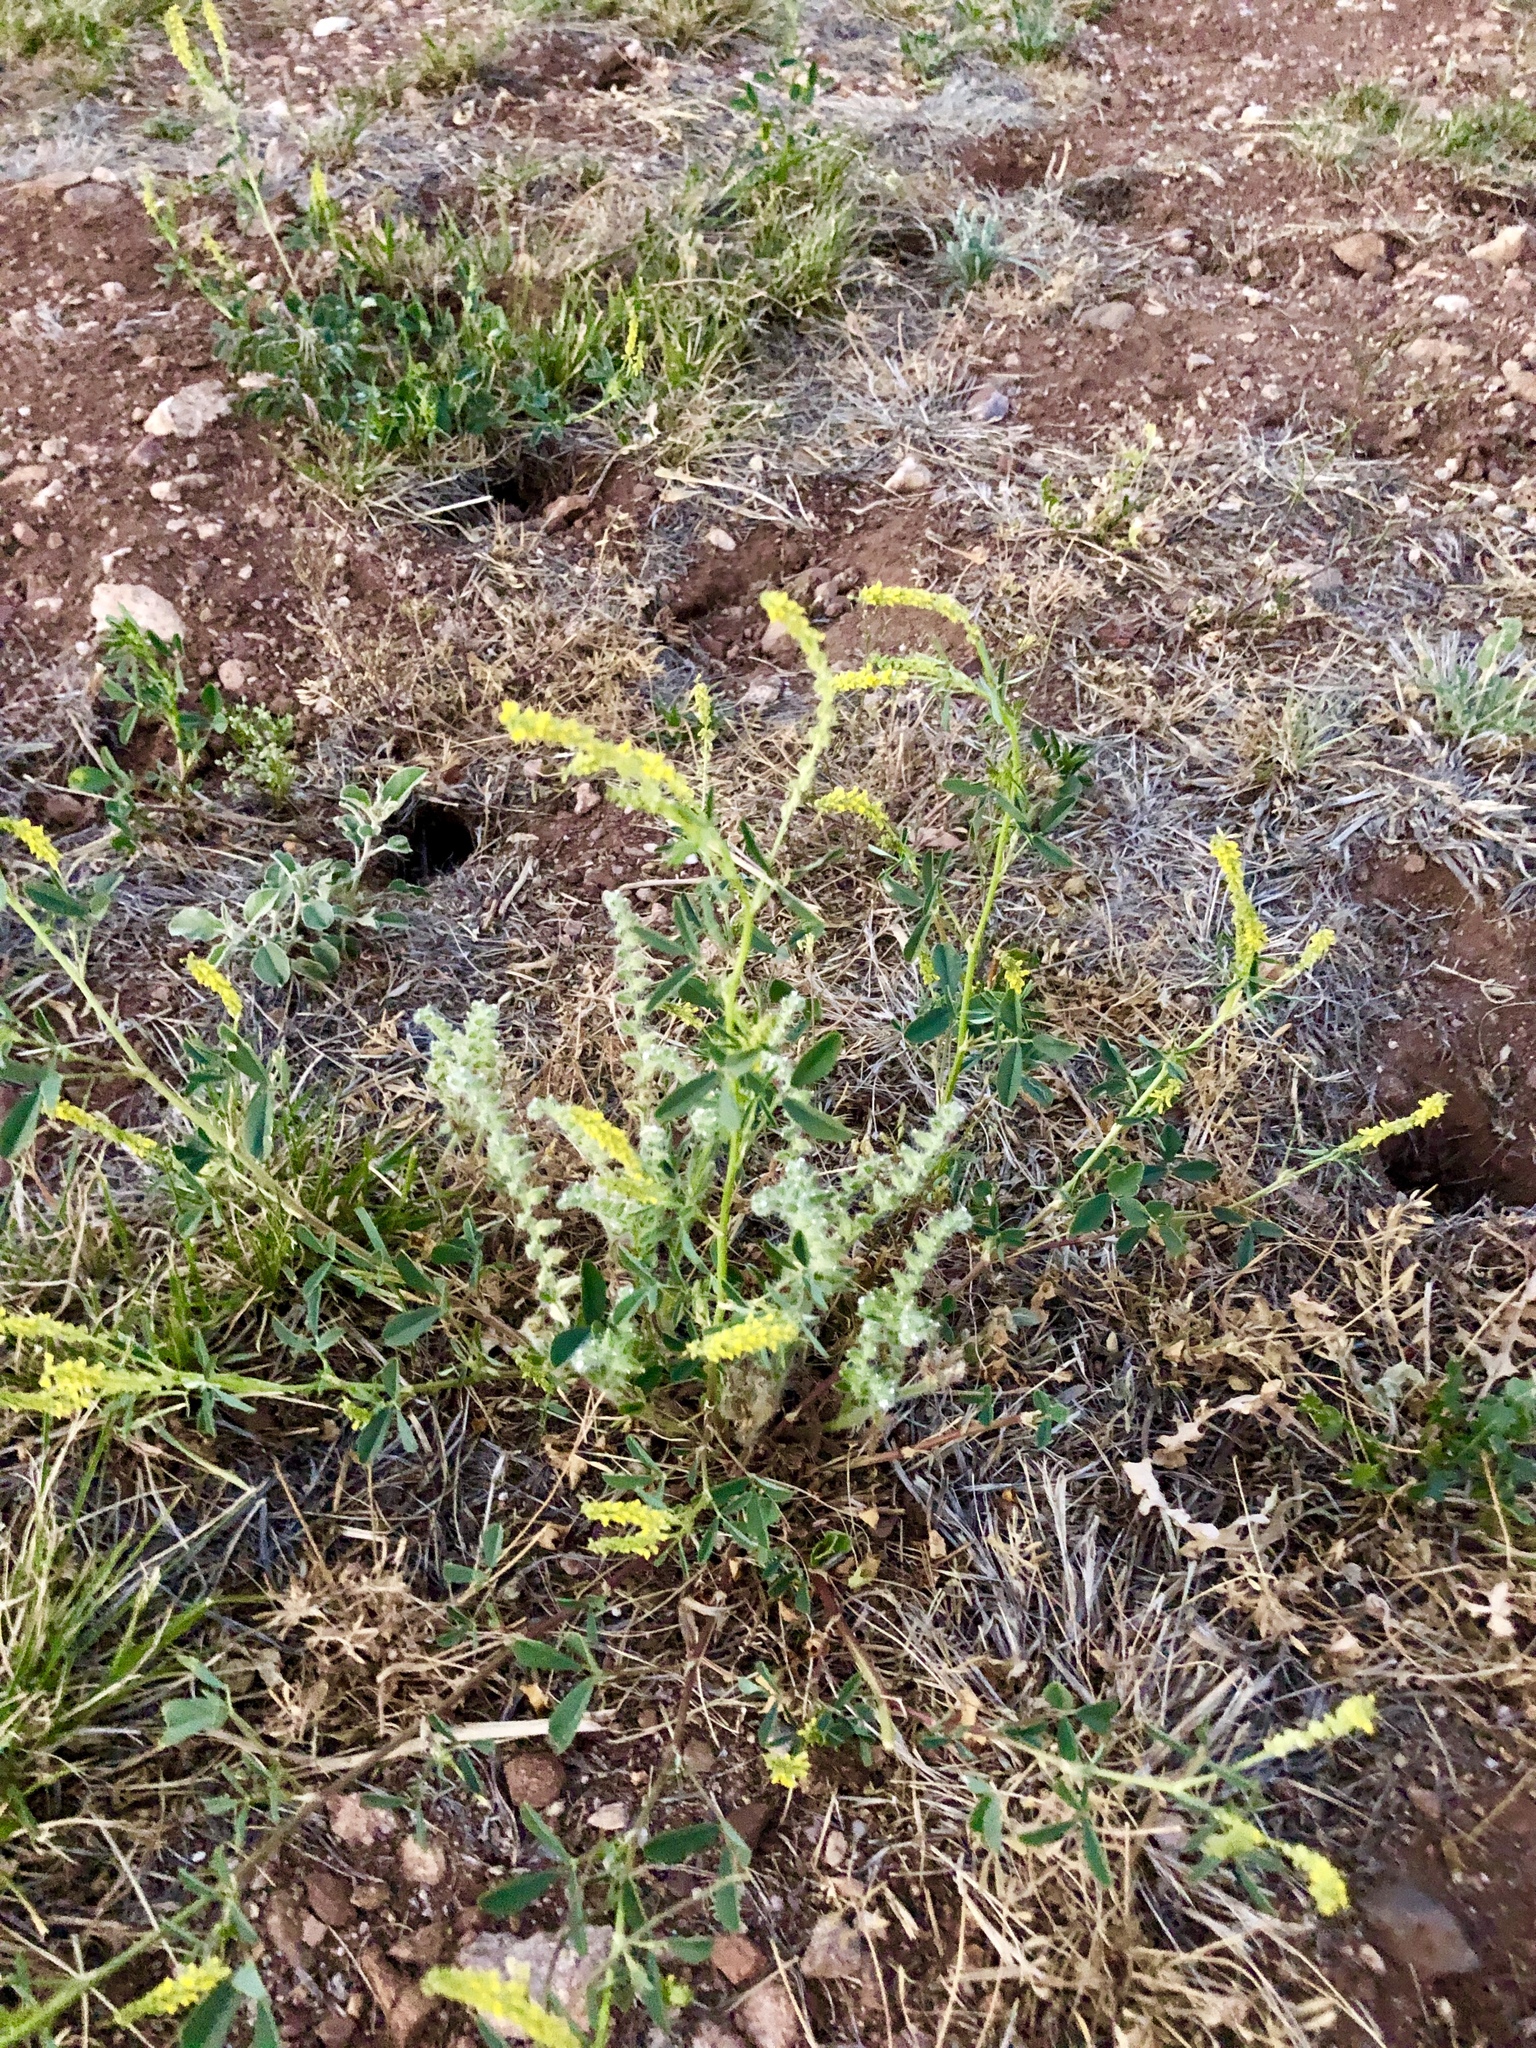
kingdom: Plantae
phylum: Tracheophyta
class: Magnoliopsida
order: Fabales
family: Fabaceae
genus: Melilotus
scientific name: Melilotus officinalis
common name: Sweetclover
